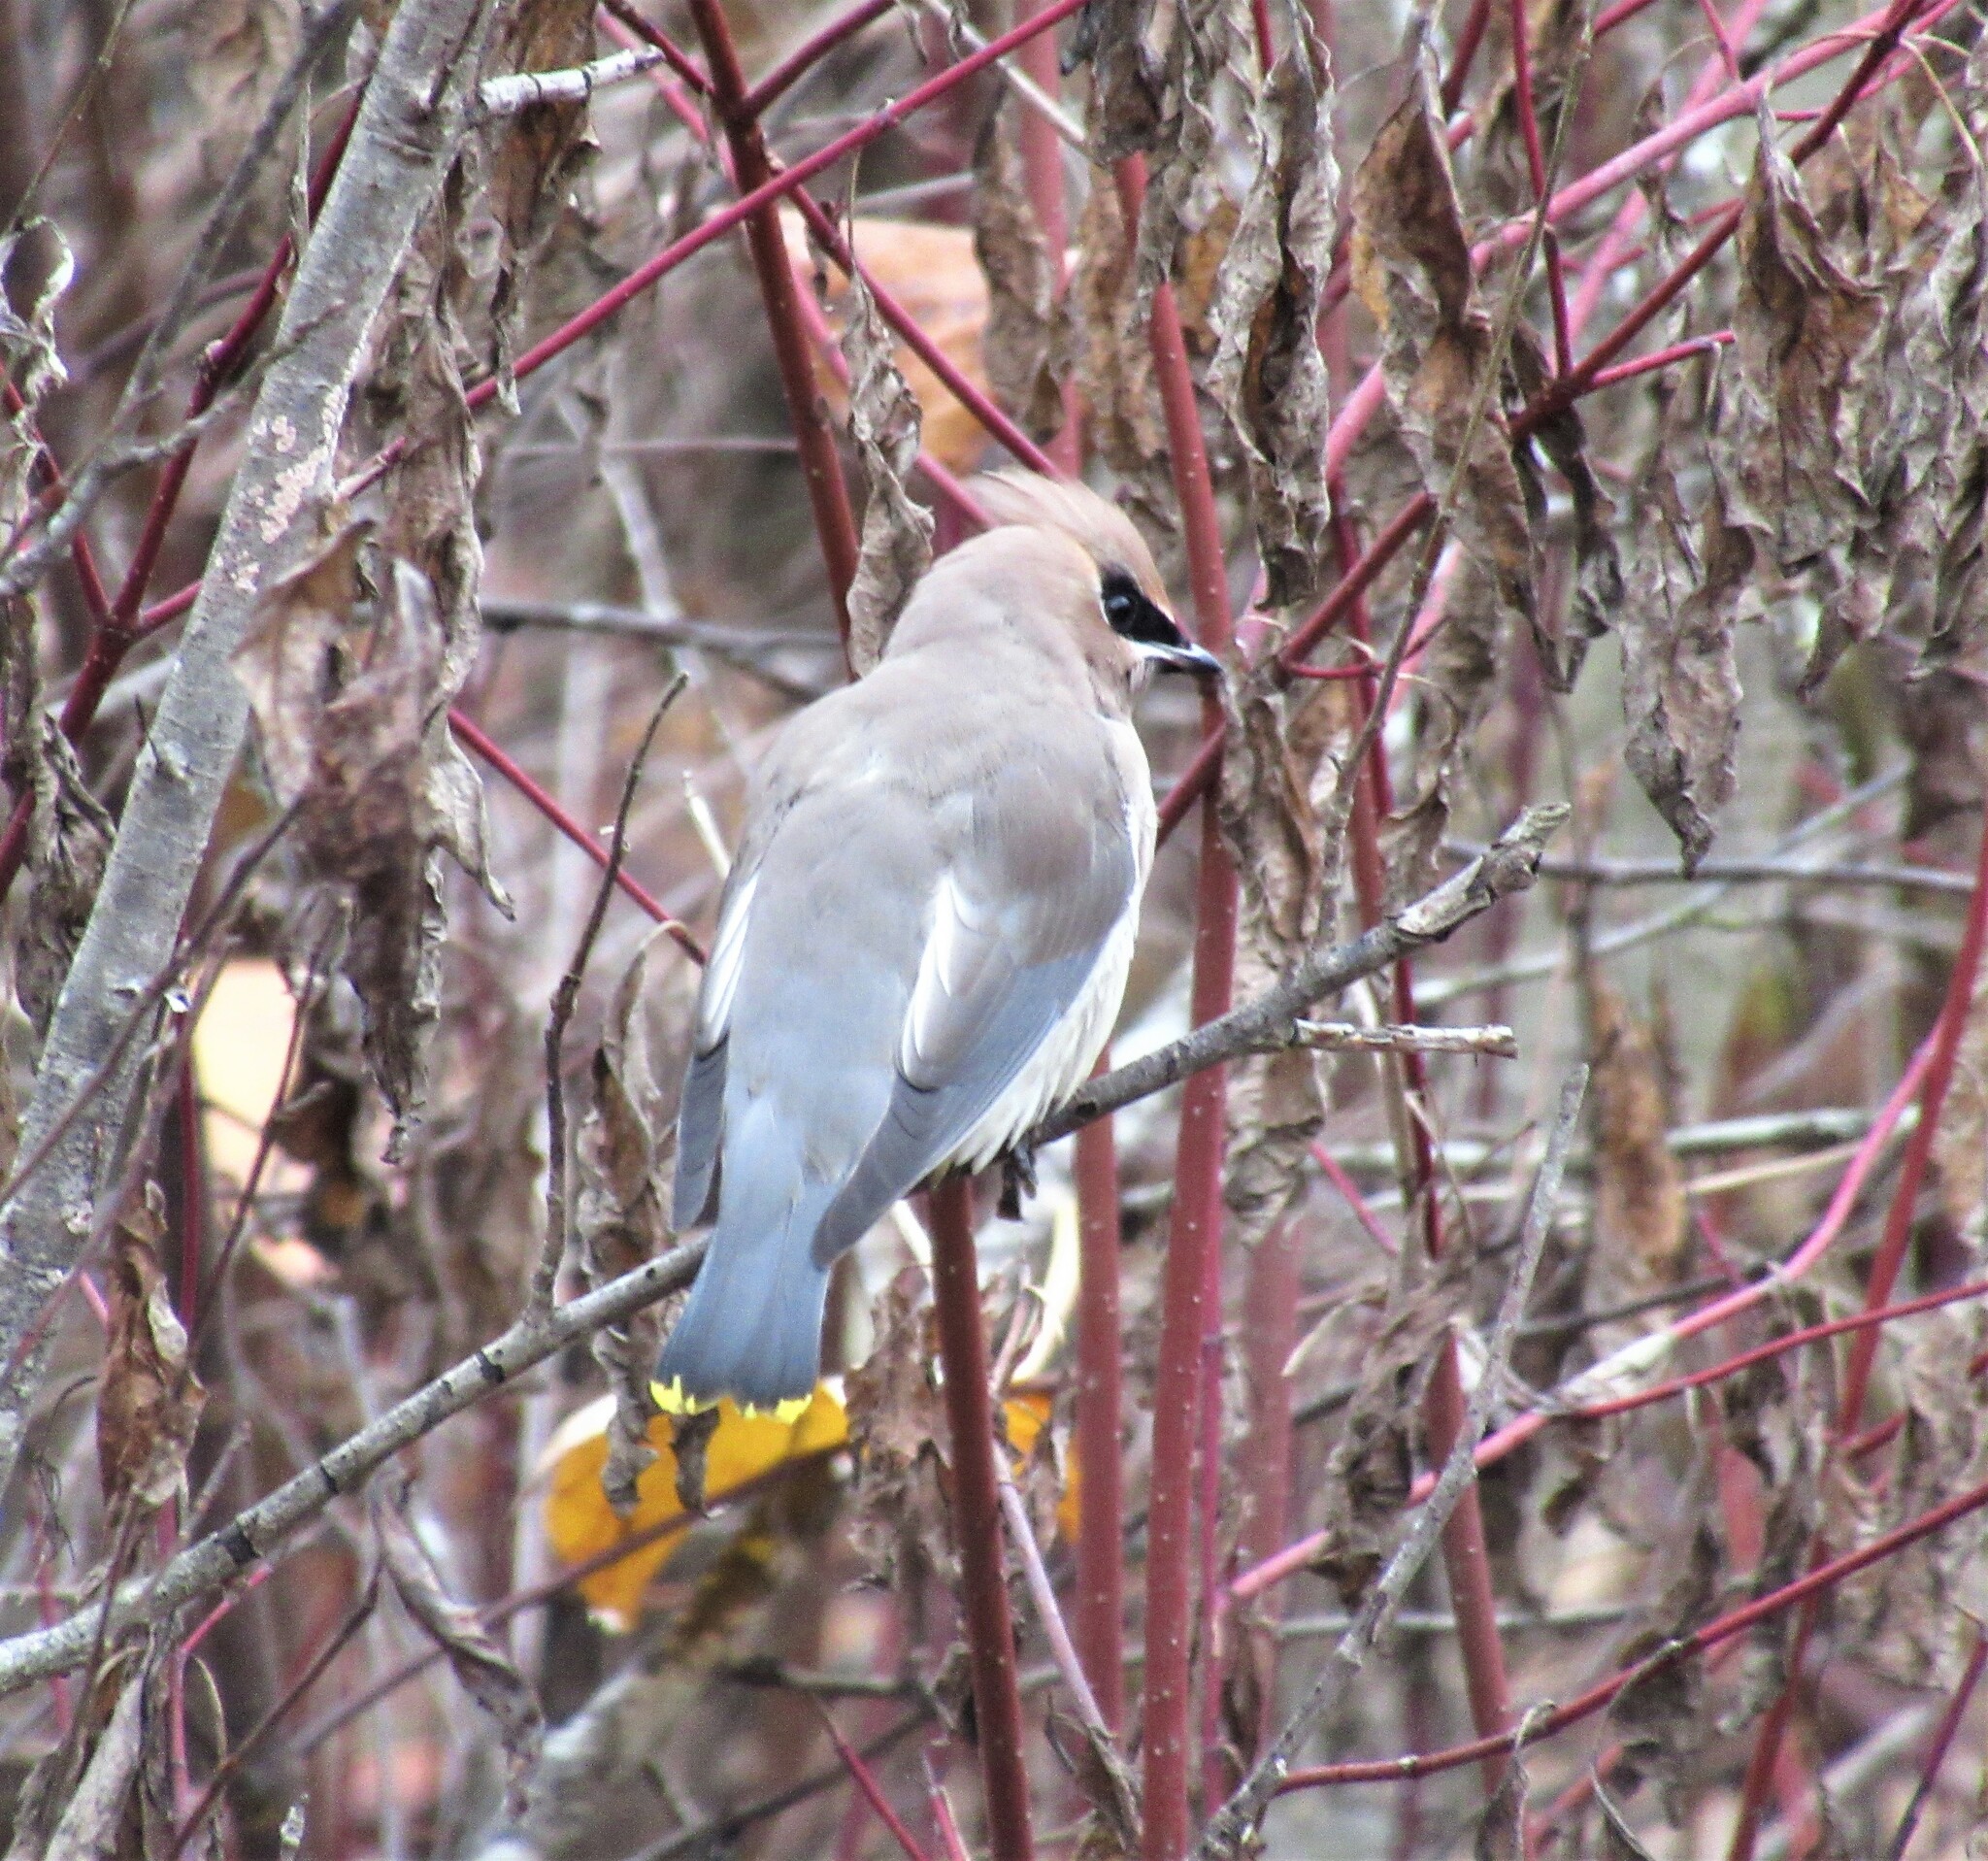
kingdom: Animalia
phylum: Chordata
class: Aves
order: Passeriformes
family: Bombycillidae
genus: Bombycilla
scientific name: Bombycilla cedrorum
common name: Cedar waxwing
